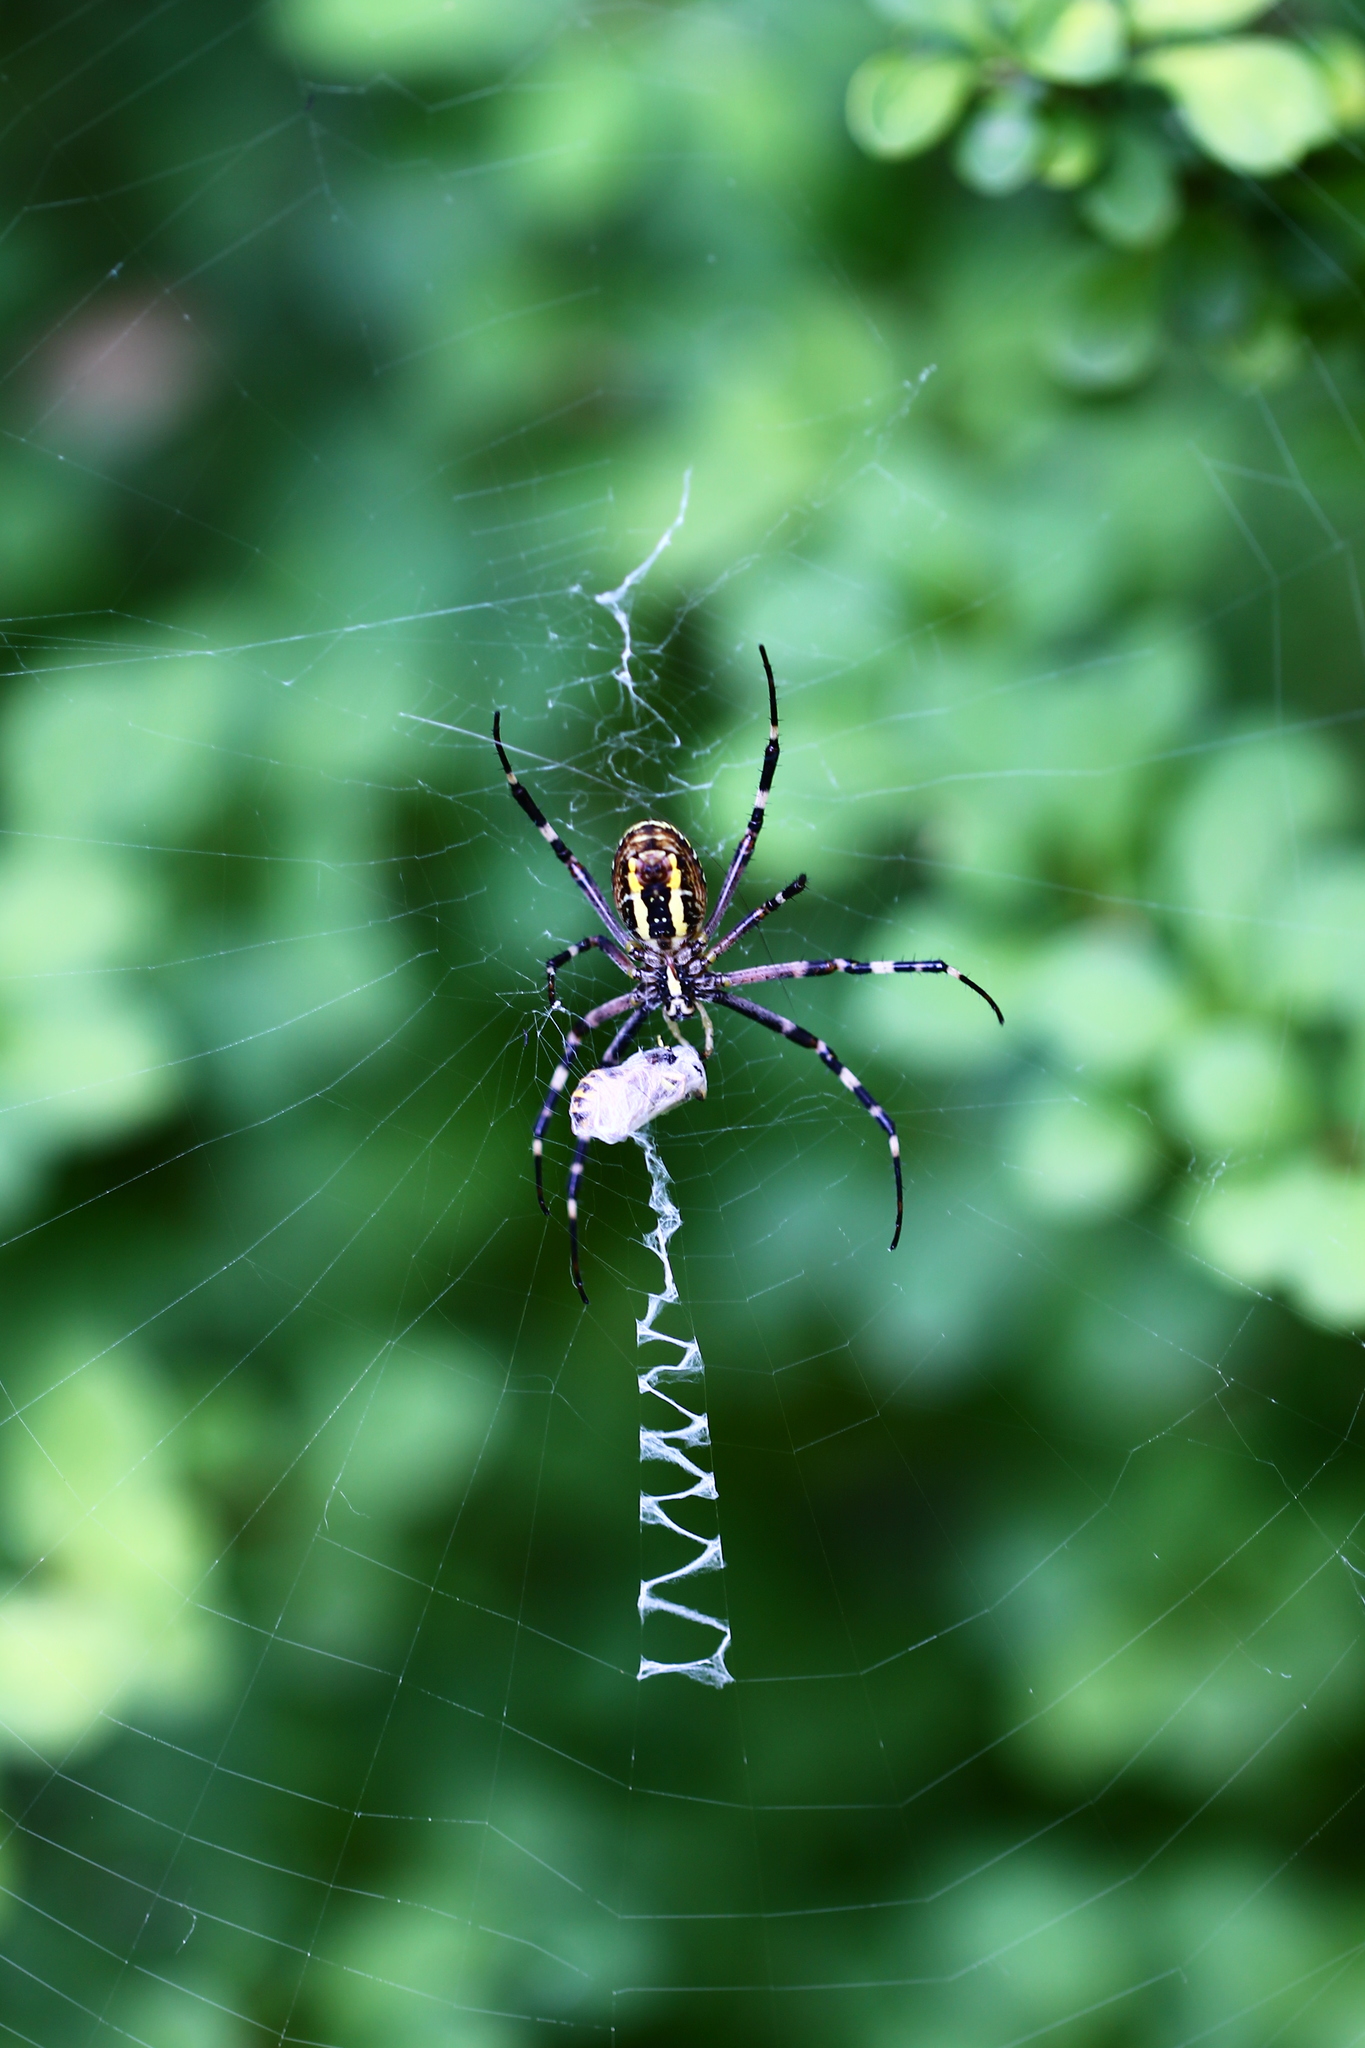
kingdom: Animalia
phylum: Arthropoda
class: Arachnida
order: Araneae
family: Araneidae
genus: Argiope
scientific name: Argiope bruennichi
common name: Wasp spider
